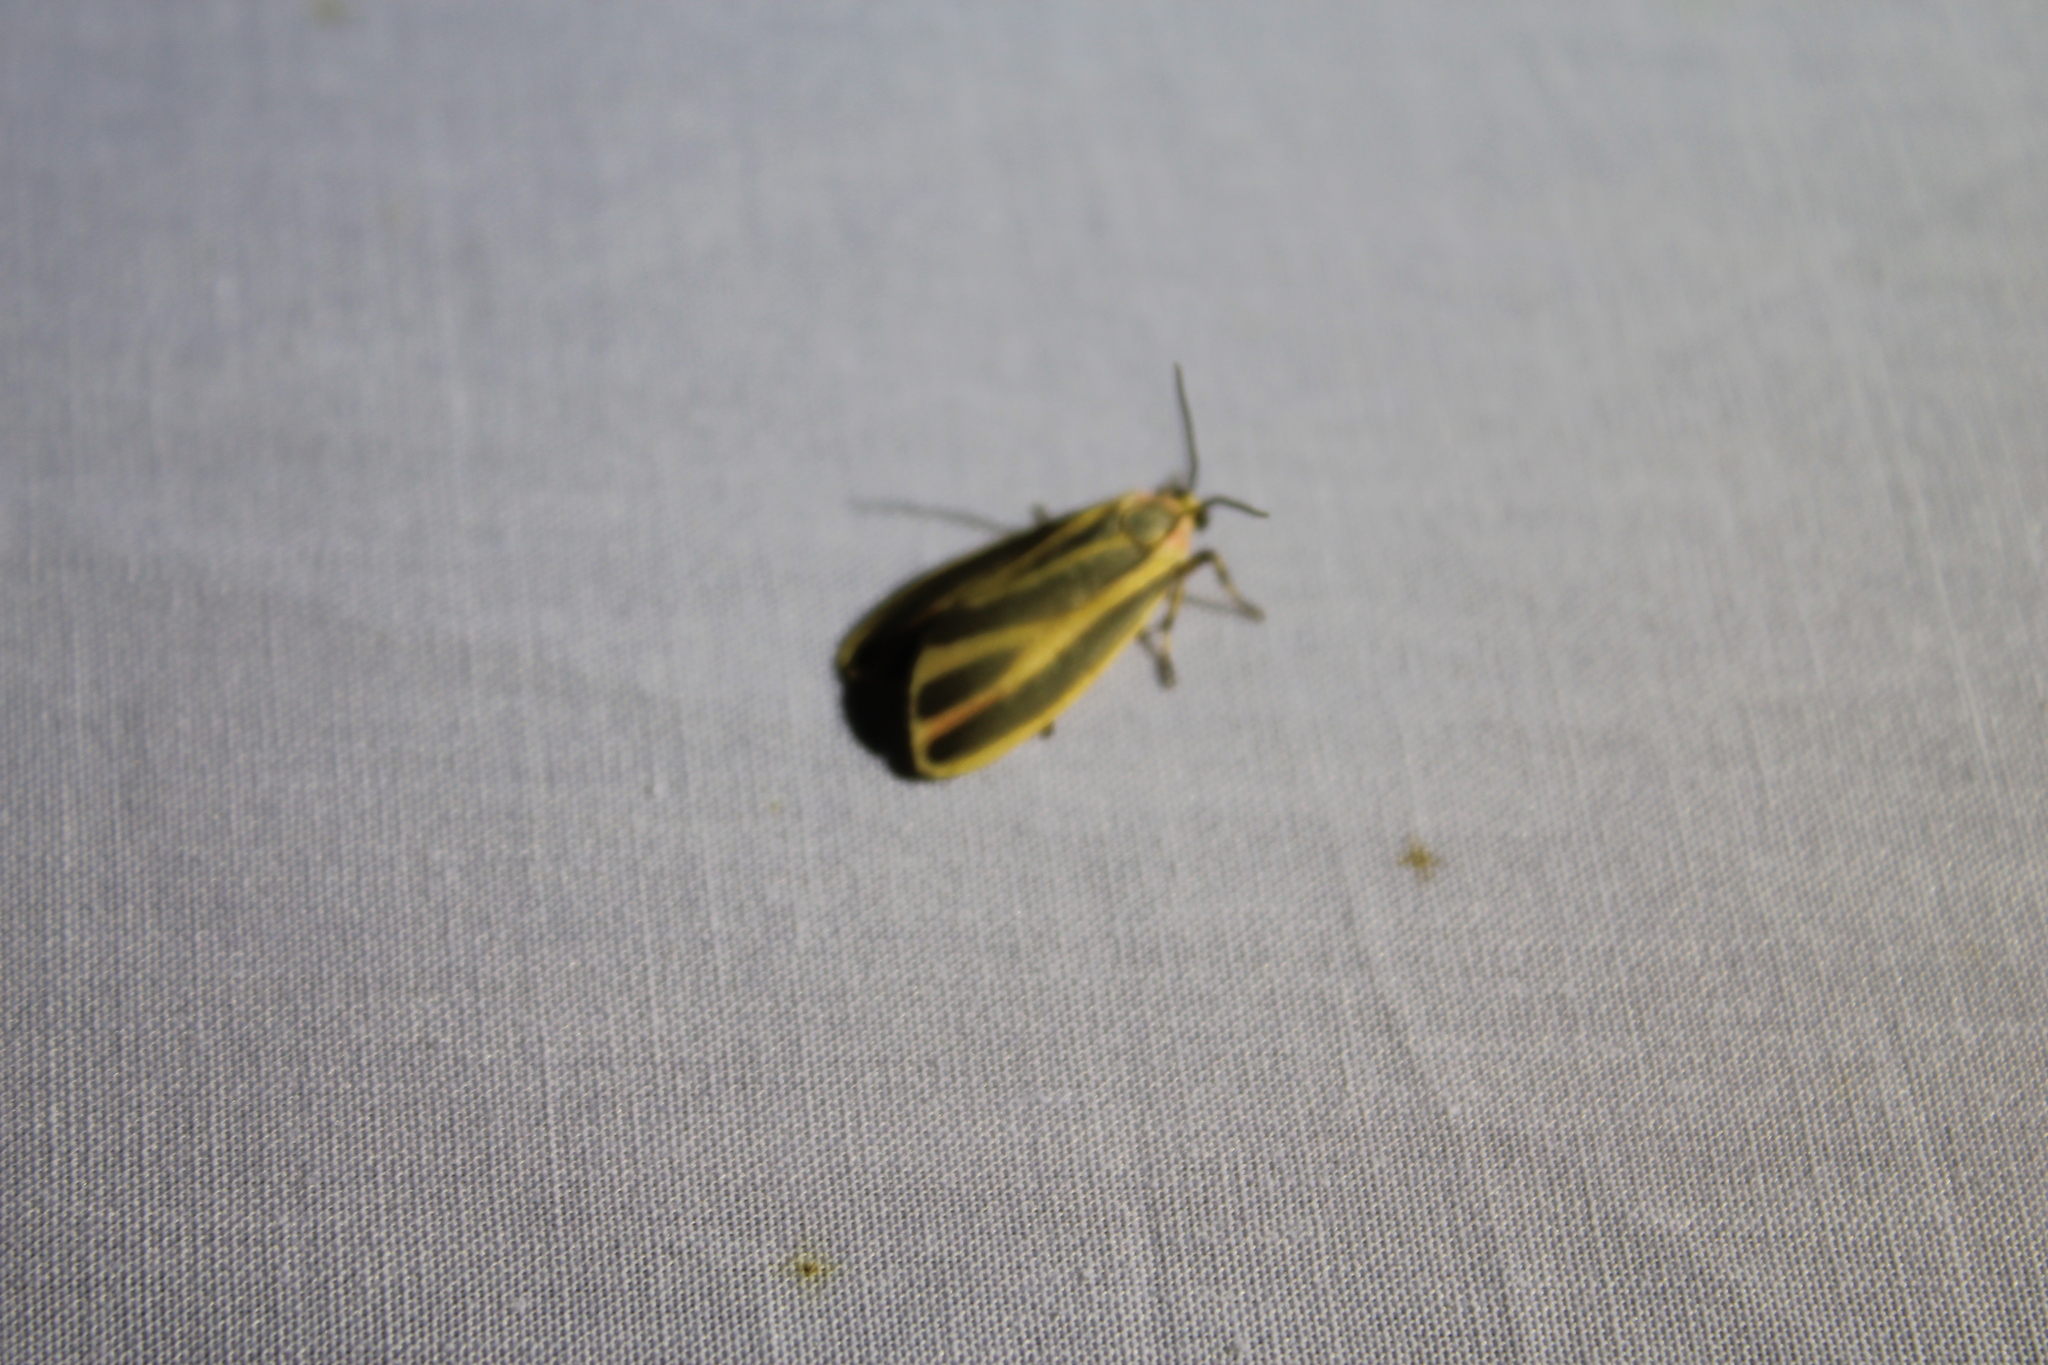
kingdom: Animalia
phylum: Arthropoda
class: Insecta
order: Lepidoptera
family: Erebidae
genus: Hypoprepia
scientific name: Hypoprepia fucosa
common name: Painted lichen moth
